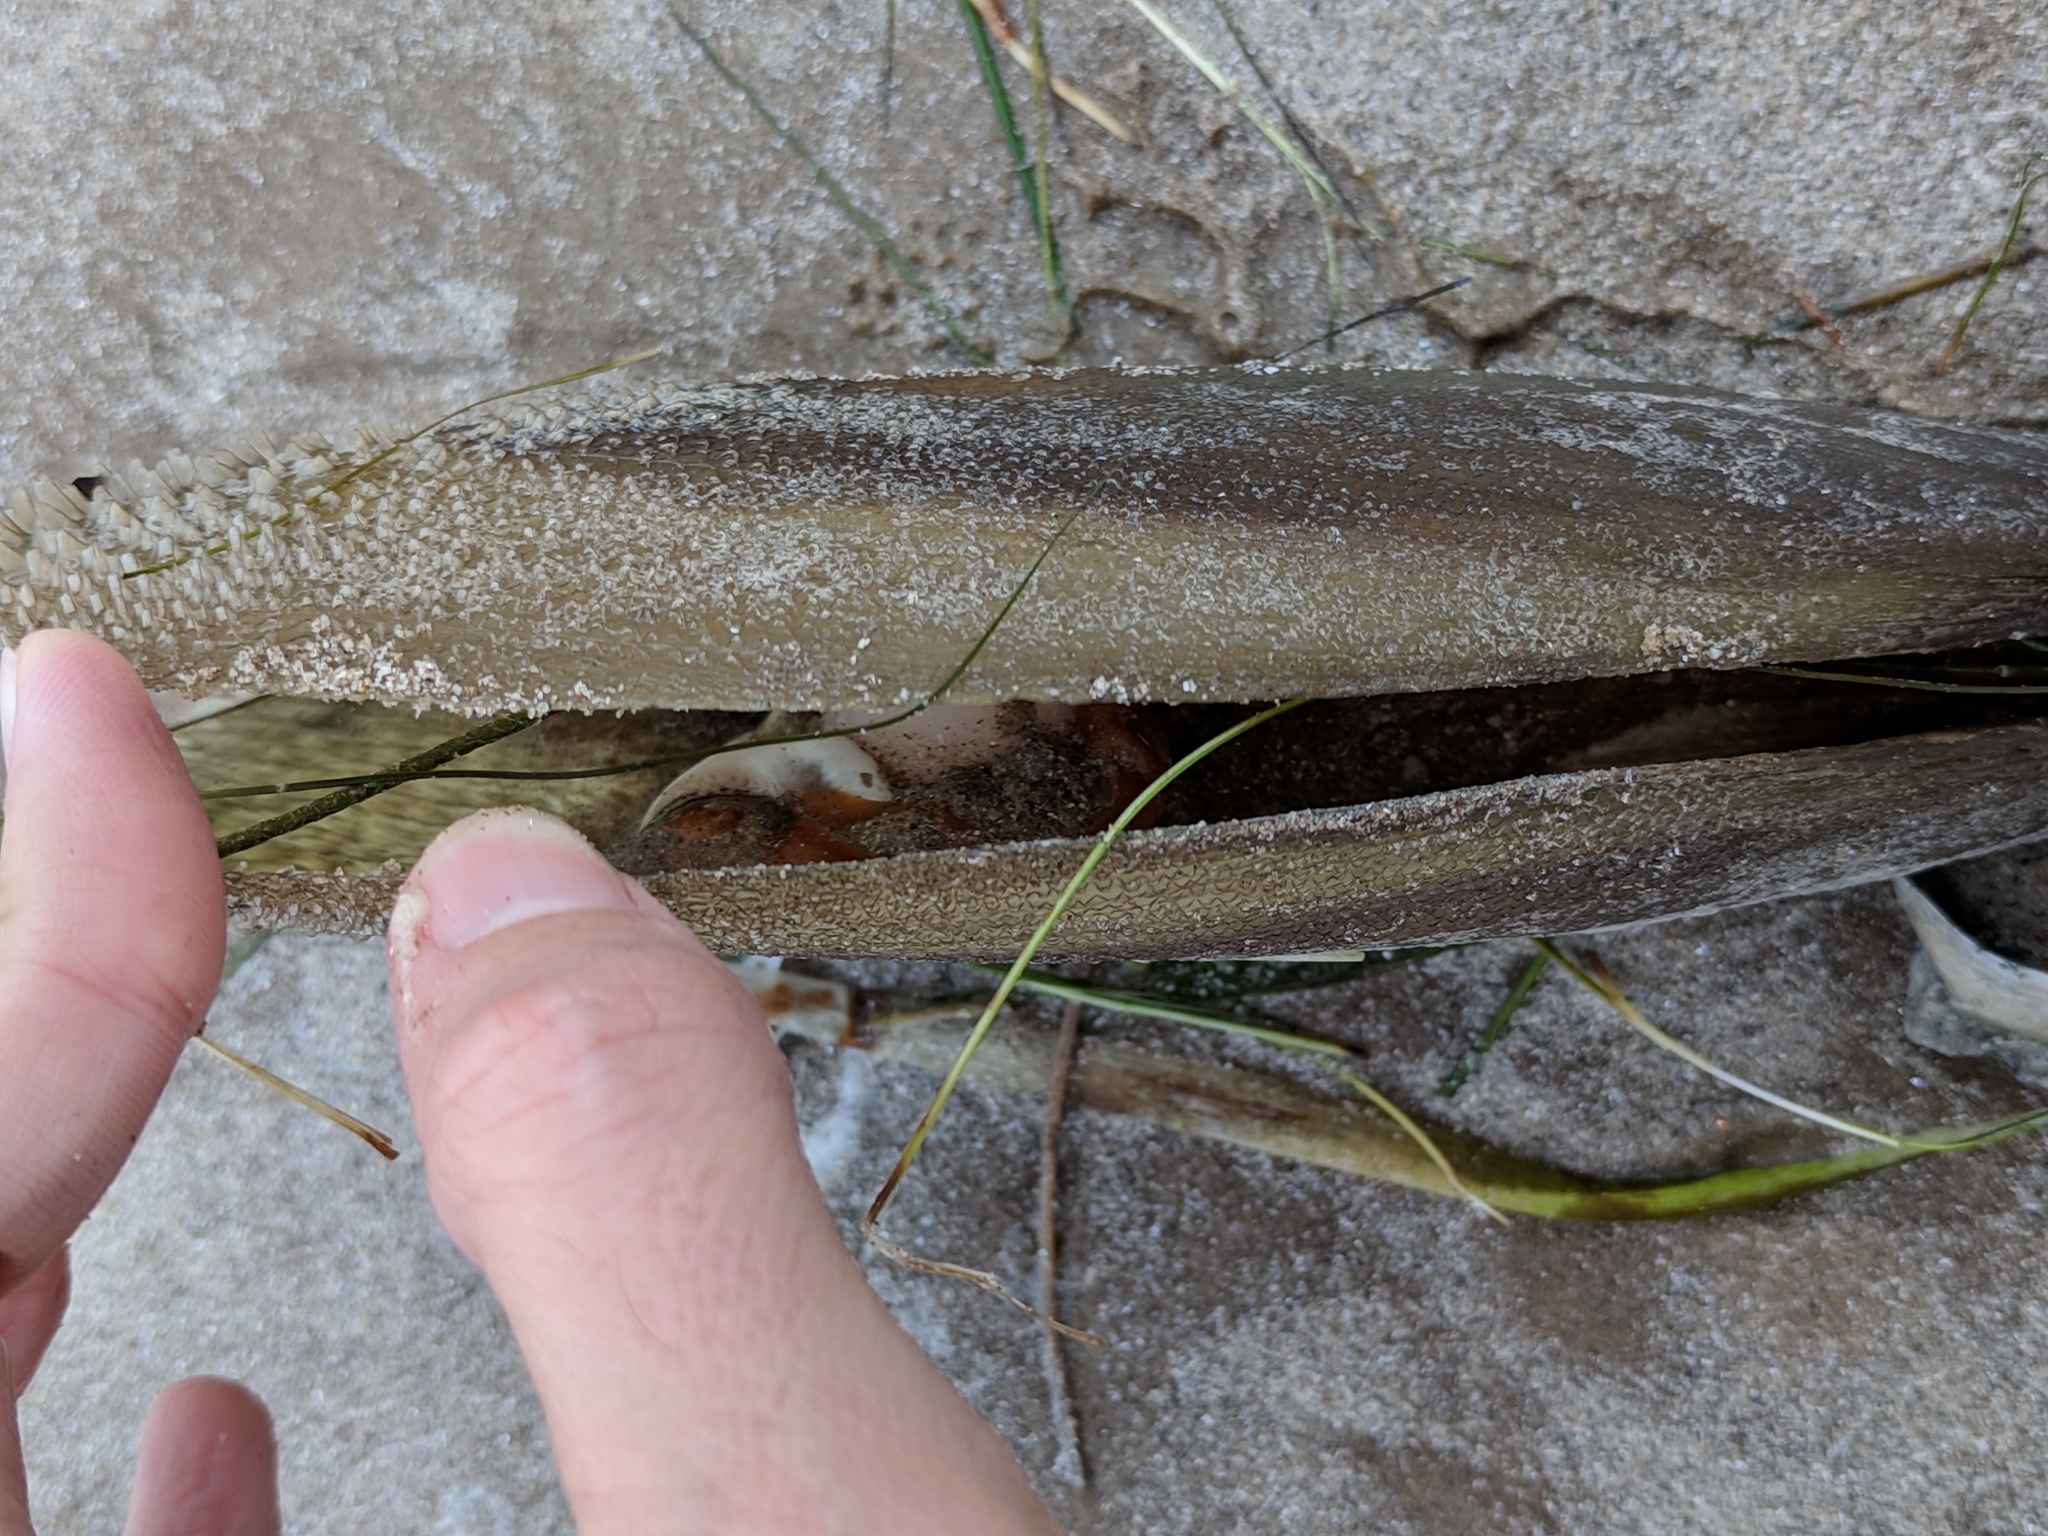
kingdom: Animalia
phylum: Mollusca
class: Bivalvia
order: Ostreida
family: Pinnidae
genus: Atrina
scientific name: Atrina serrata
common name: Saw-toothed penshell
